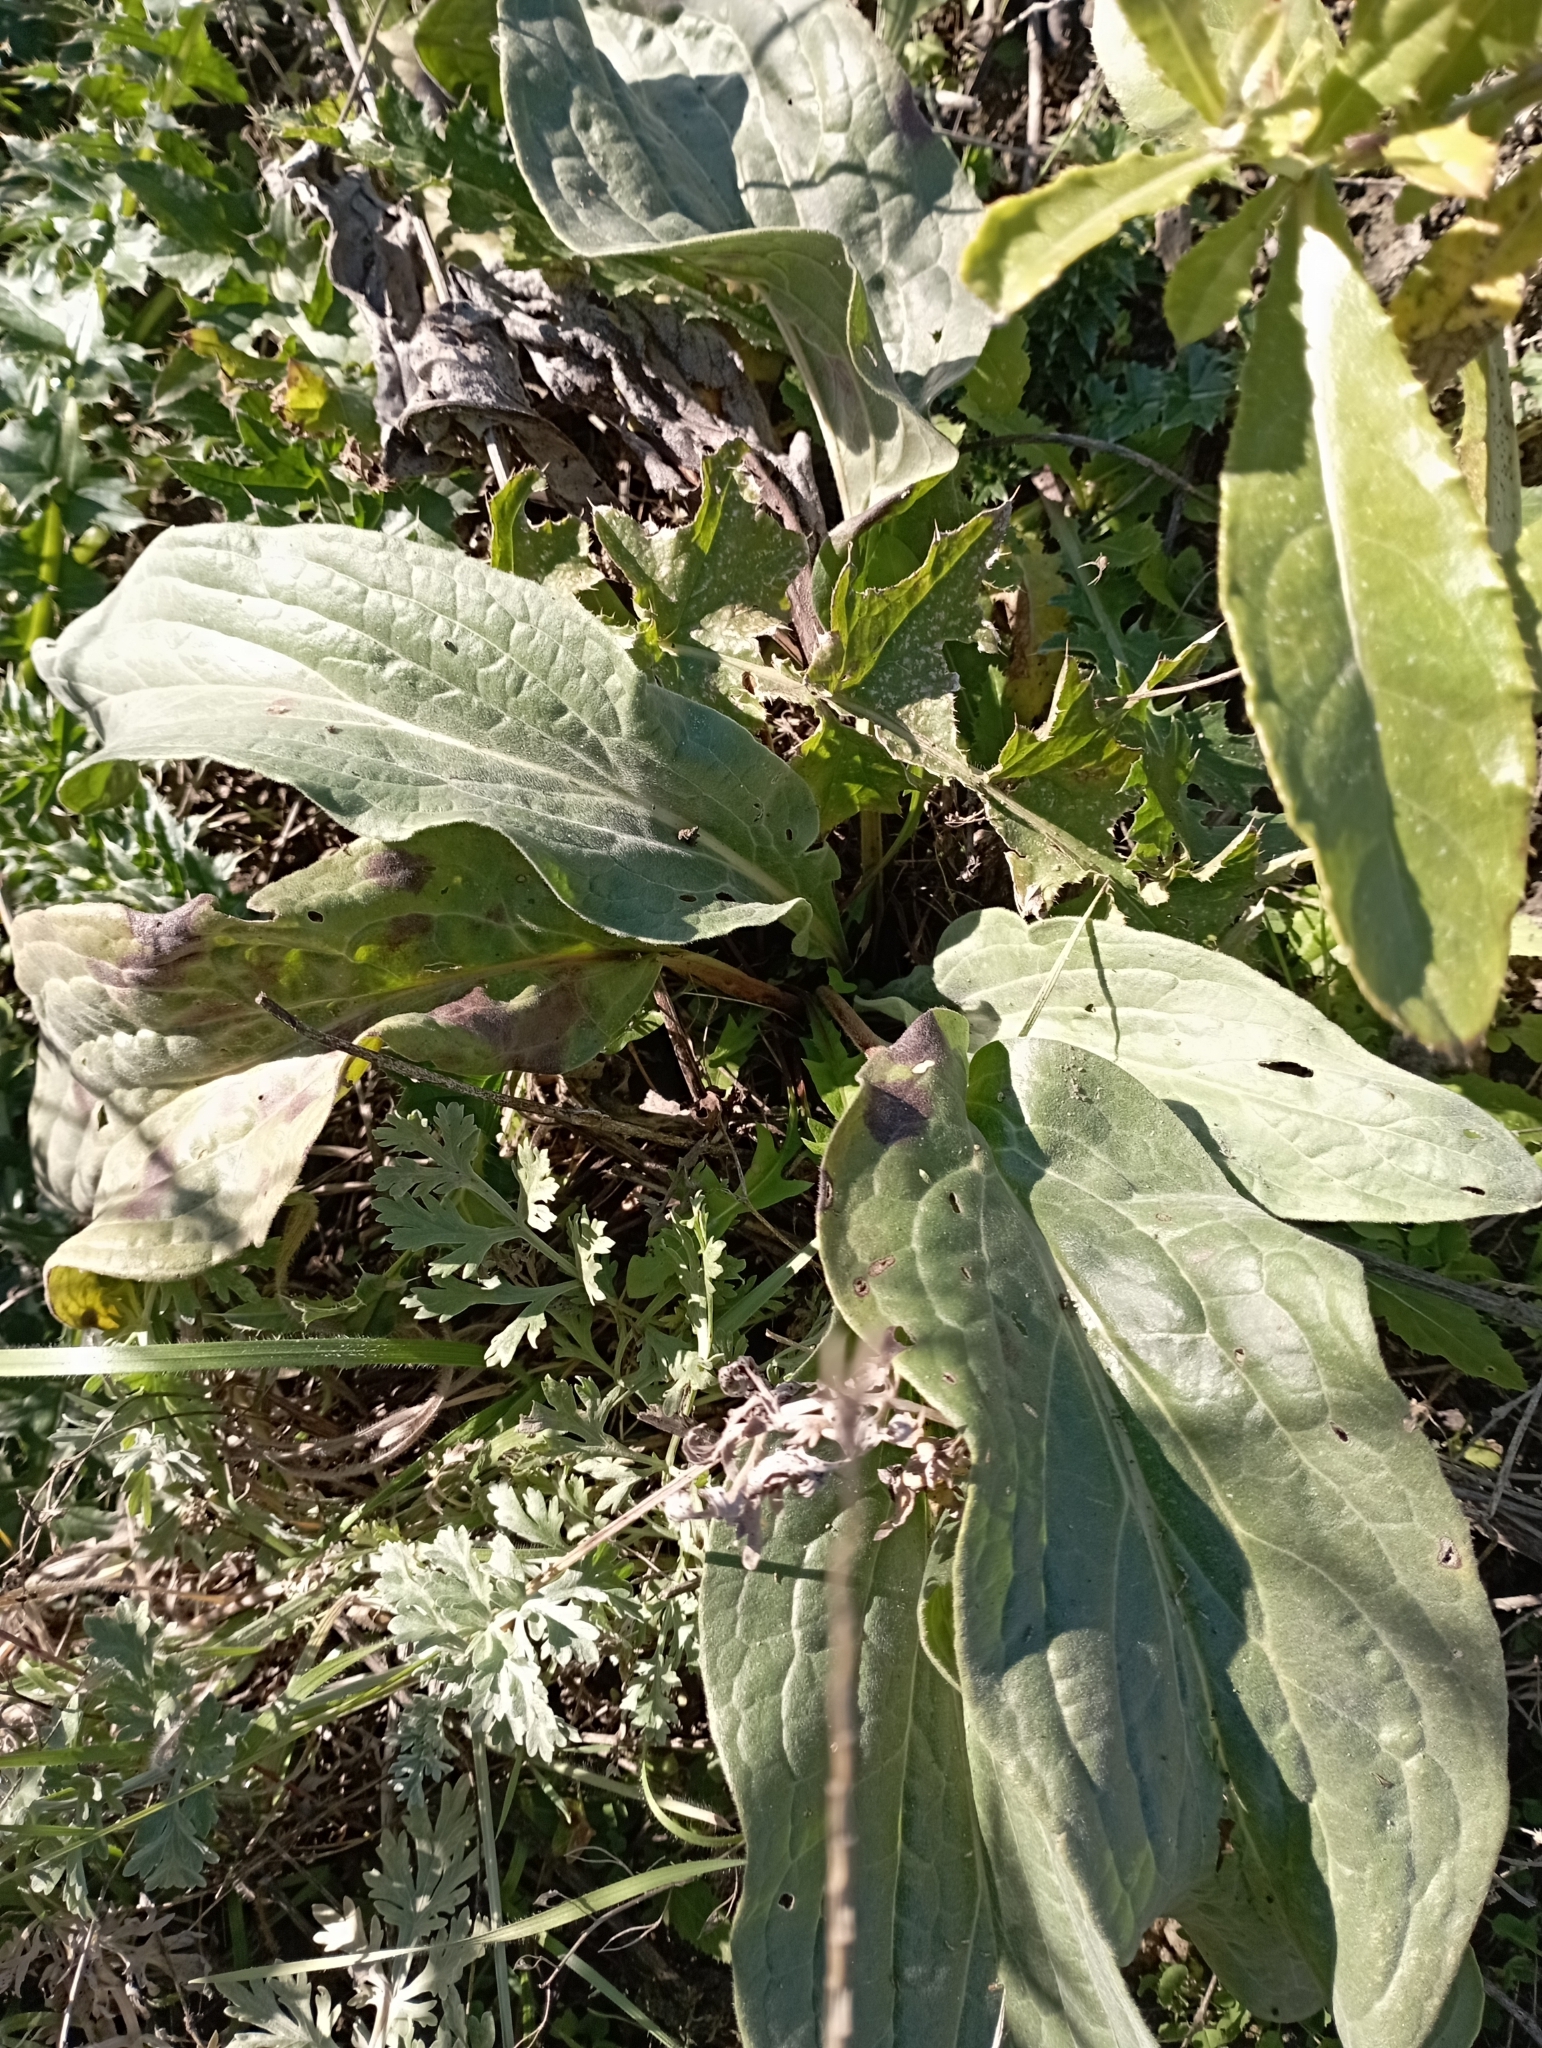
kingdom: Plantae
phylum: Tracheophyta
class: Magnoliopsida
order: Boraginales
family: Boraginaceae
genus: Cynoglossum
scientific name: Cynoglossum officinale
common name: Hound's-tongue
